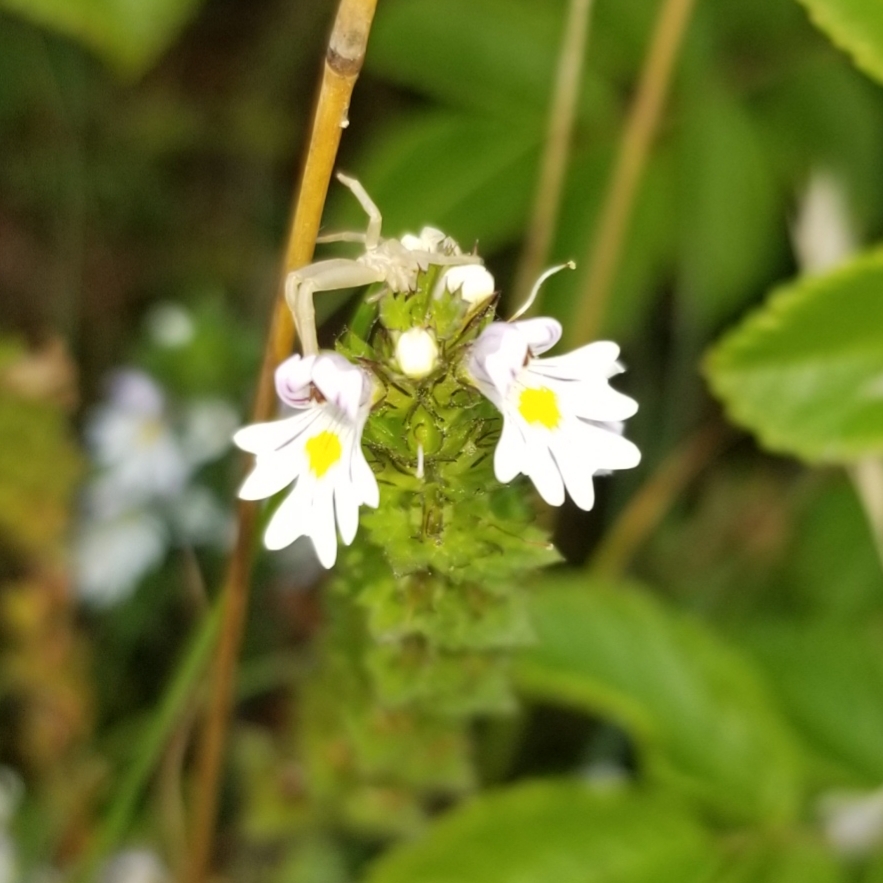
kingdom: Plantae
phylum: Tracheophyta
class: Magnoliopsida
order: Lamiales
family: Orobanchaceae
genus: Euphrasia
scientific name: Euphrasia nemorosa
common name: Common eyebright
